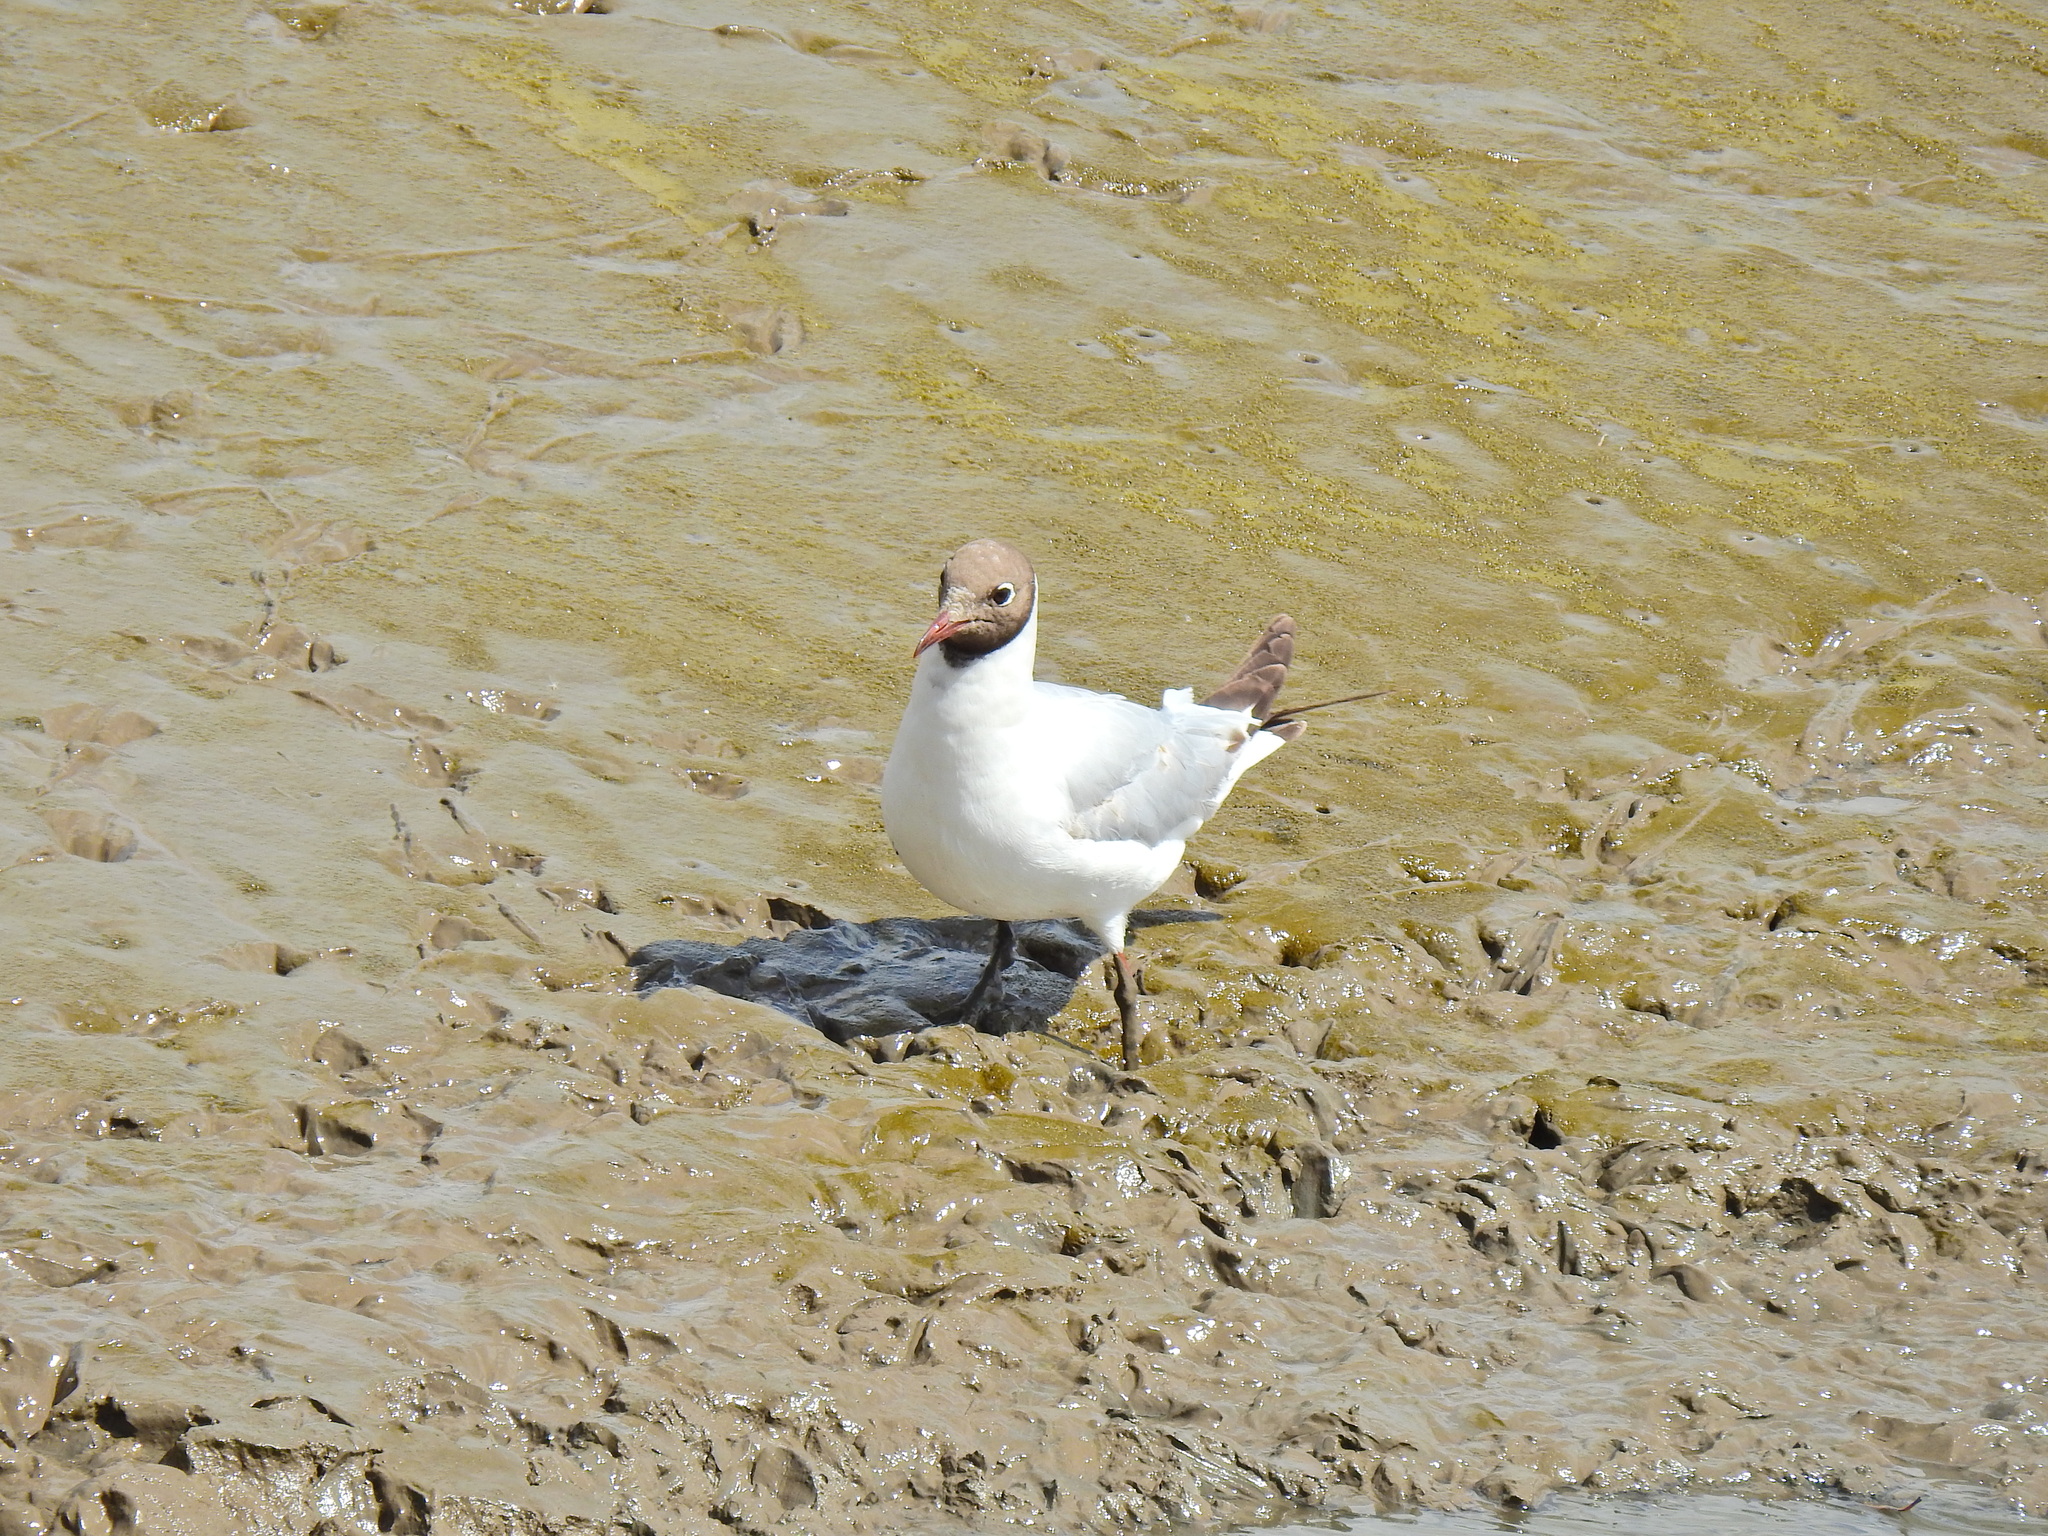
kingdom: Animalia
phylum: Chordata
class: Aves
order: Charadriiformes
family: Laridae
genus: Chroicocephalus
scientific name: Chroicocephalus ridibundus
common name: Black-headed gull
